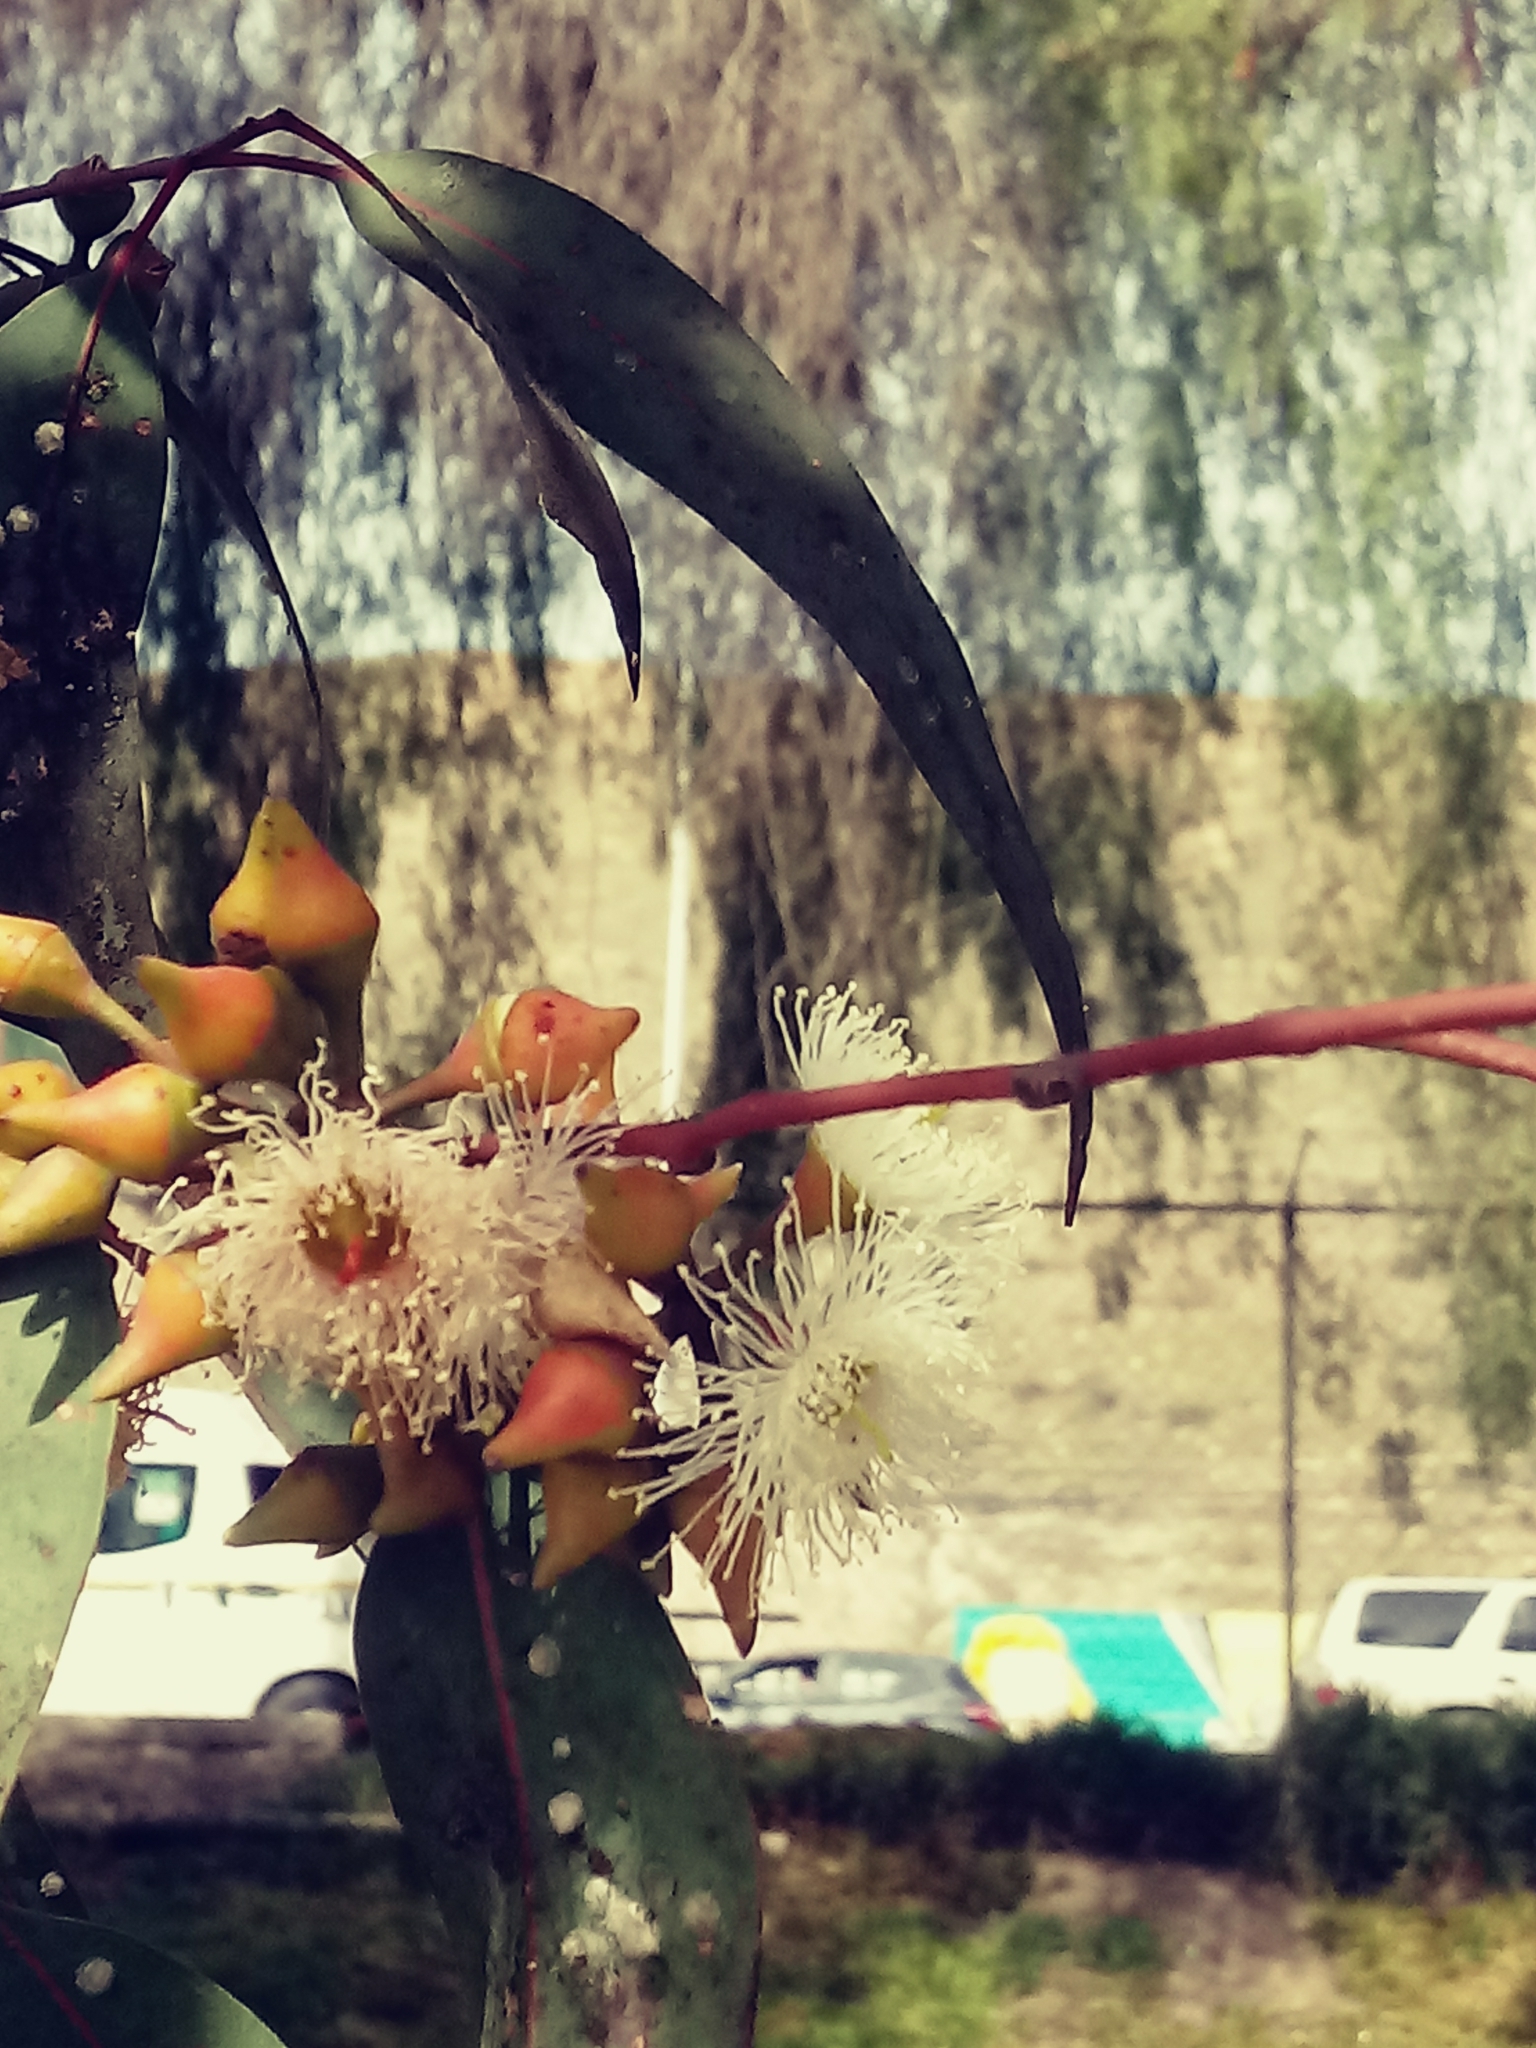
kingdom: Plantae
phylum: Tracheophyta
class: Magnoliopsida
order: Myrtales
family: Myrtaceae
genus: Eucalyptus
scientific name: Eucalyptus camaldulensis
